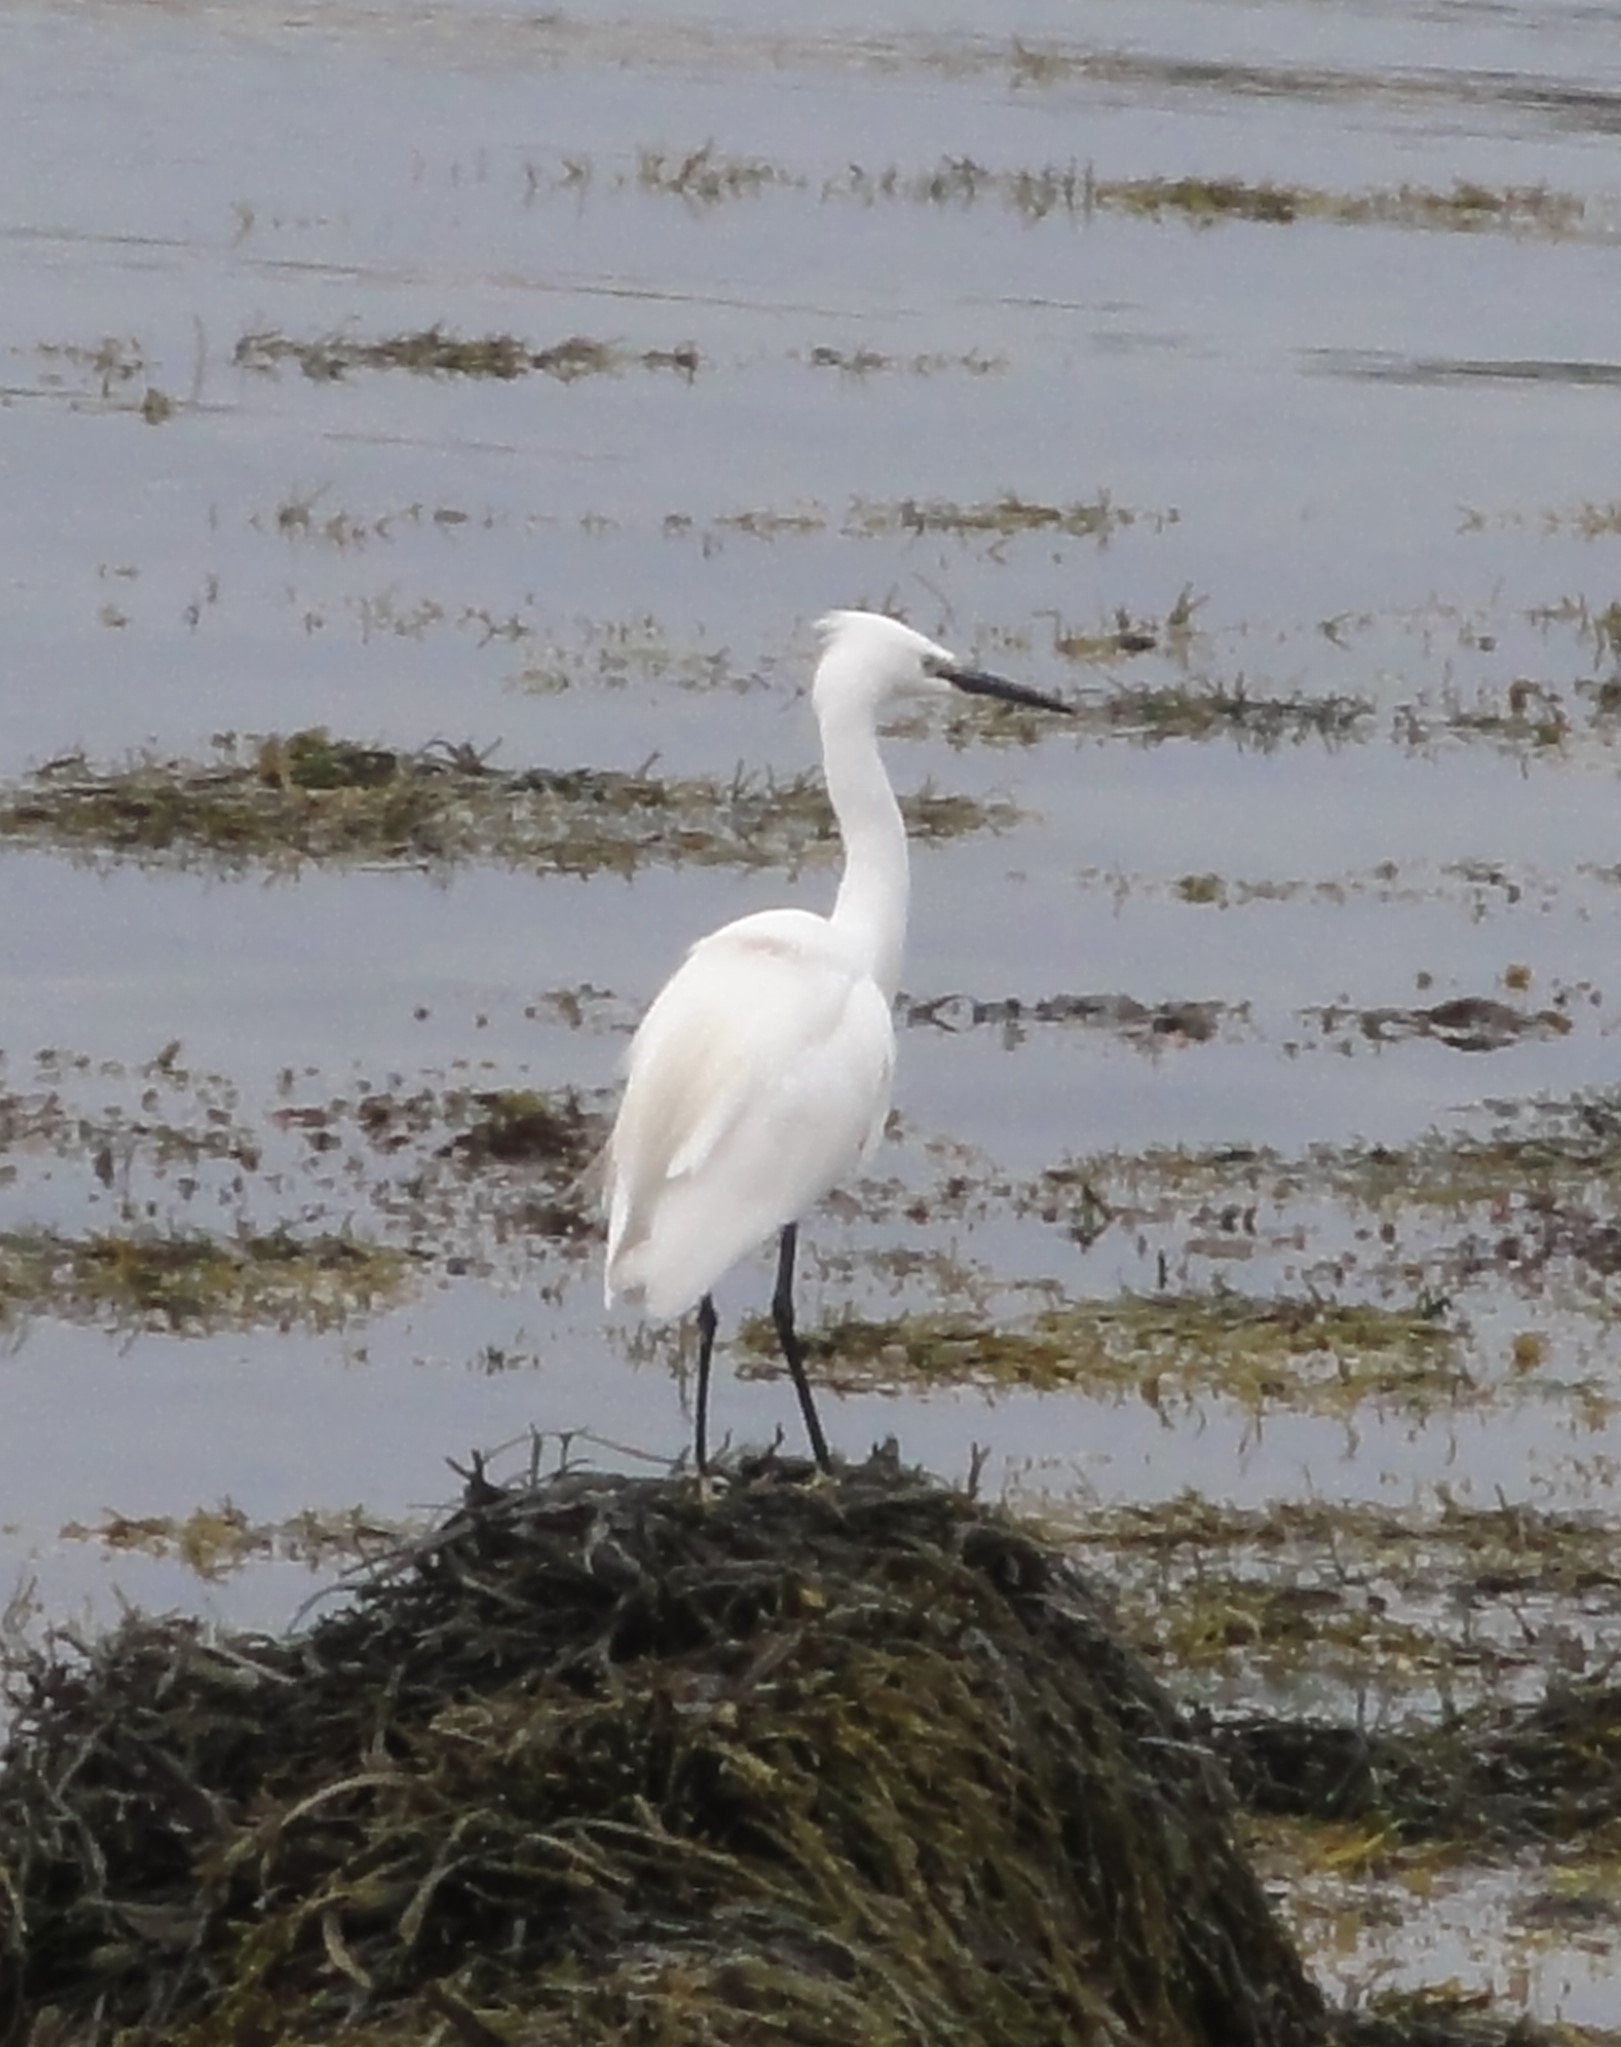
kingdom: Animalia
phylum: Chordata
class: Aves
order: Pelecaniformes
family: Ardeidae
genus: Egretta
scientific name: Egretta garzetta
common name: Little egret
